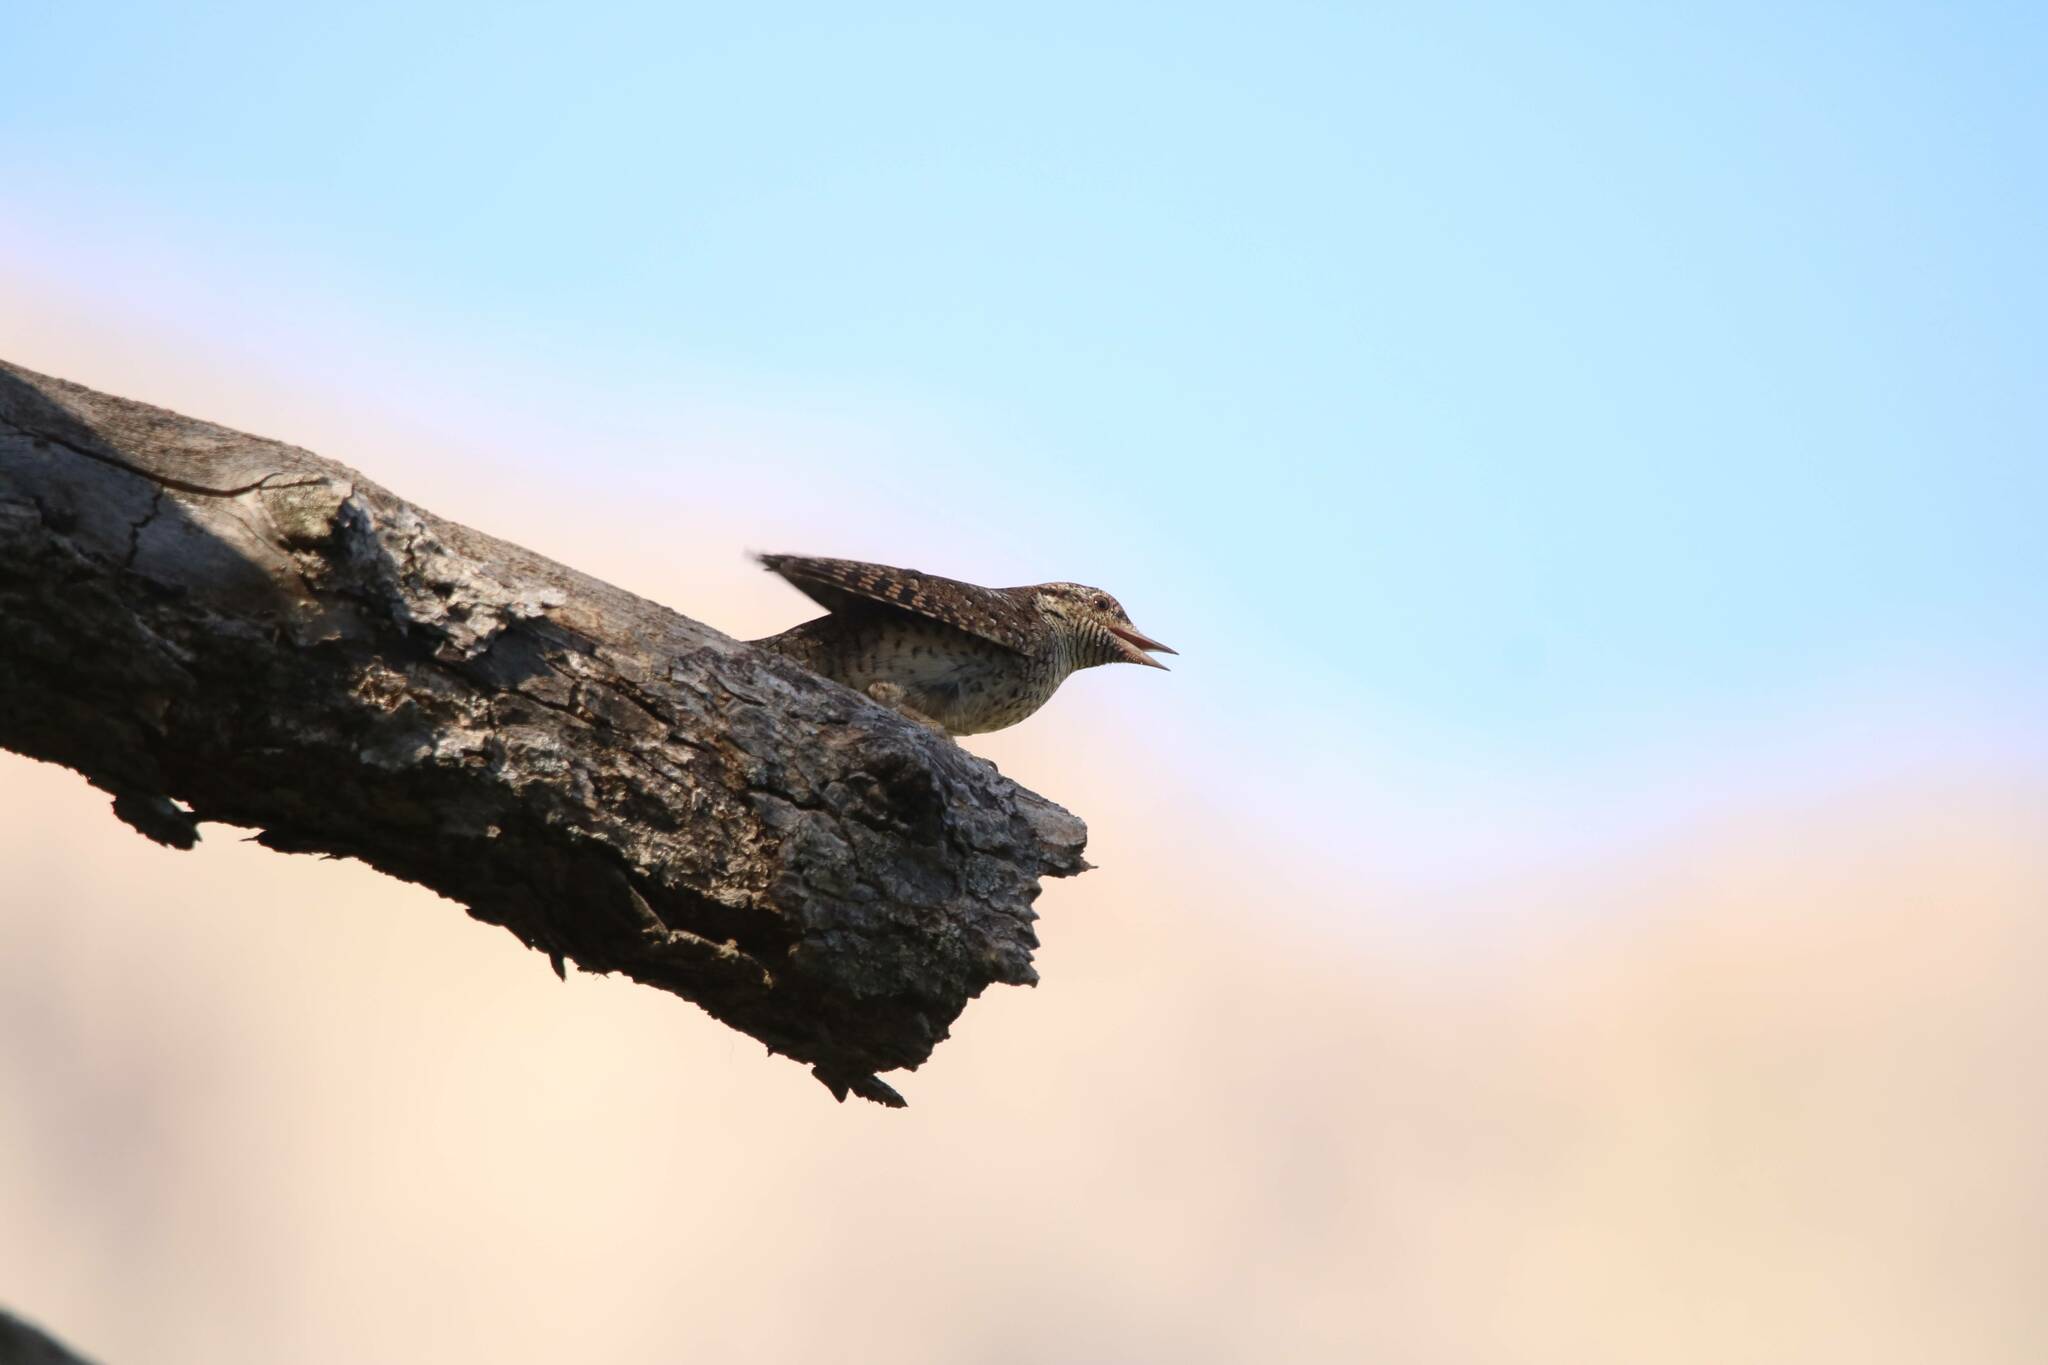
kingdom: Animalia
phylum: Chordata
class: Aves
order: Piciformes
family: Picidae
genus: Jynx
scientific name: Jynx torquilla
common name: Eurasian wryneck
